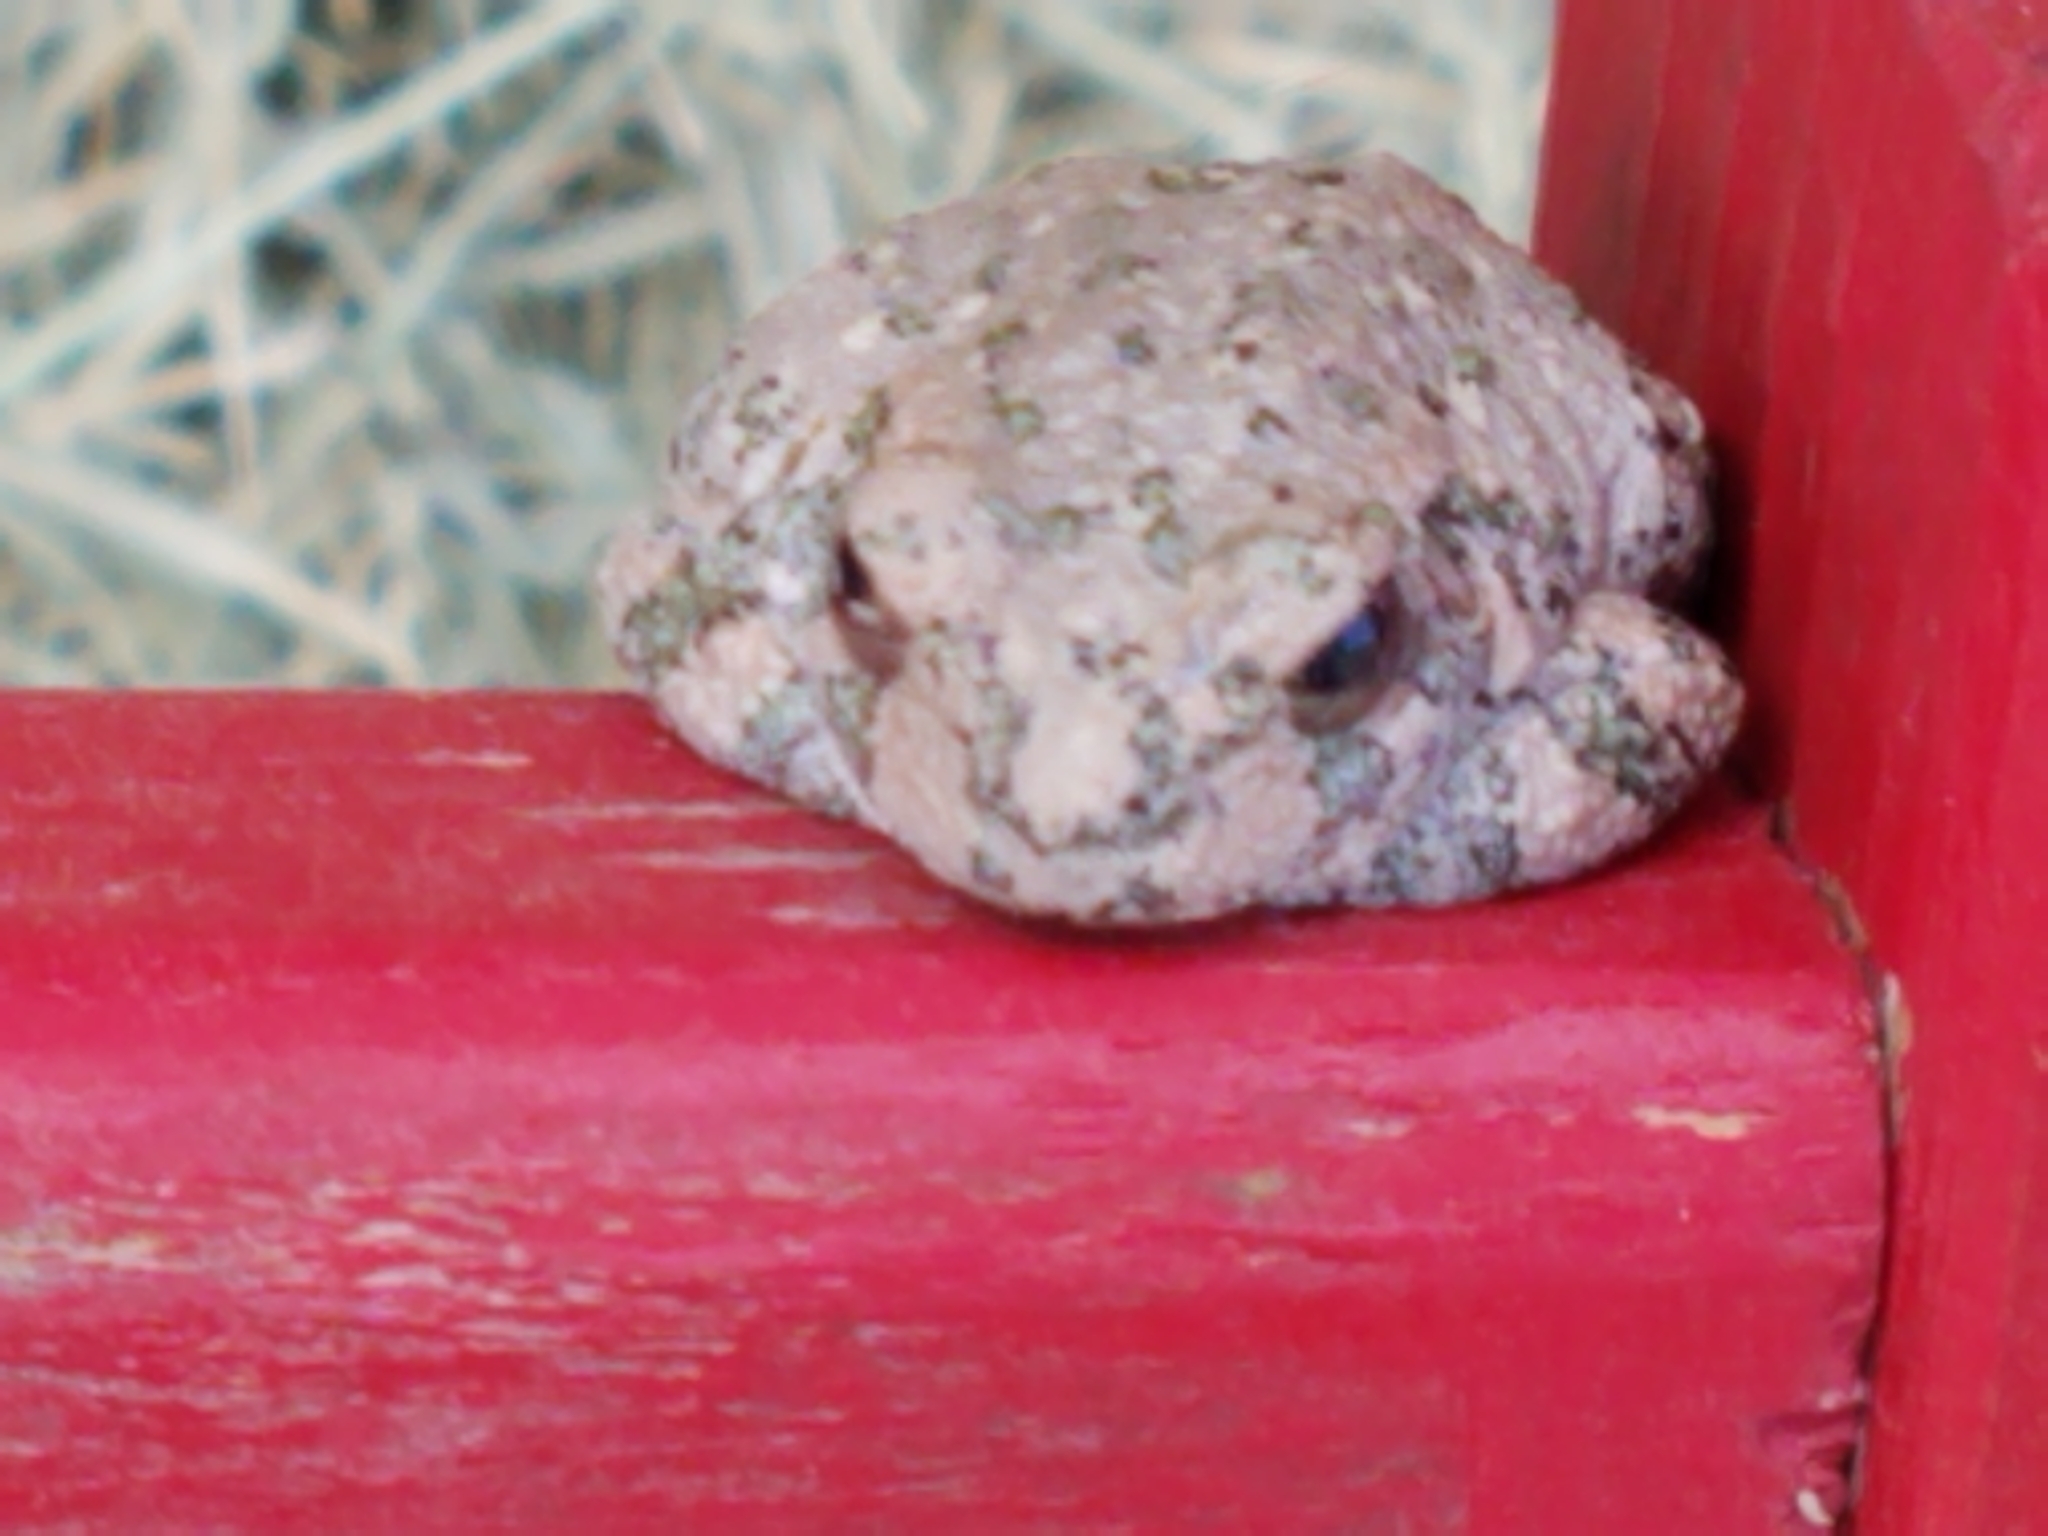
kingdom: Animalia
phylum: Chordata
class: Amphibia
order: Anura
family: Hylidae
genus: Dryophytes
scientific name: Dryophytes arenicolor
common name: Canyon treefrog
